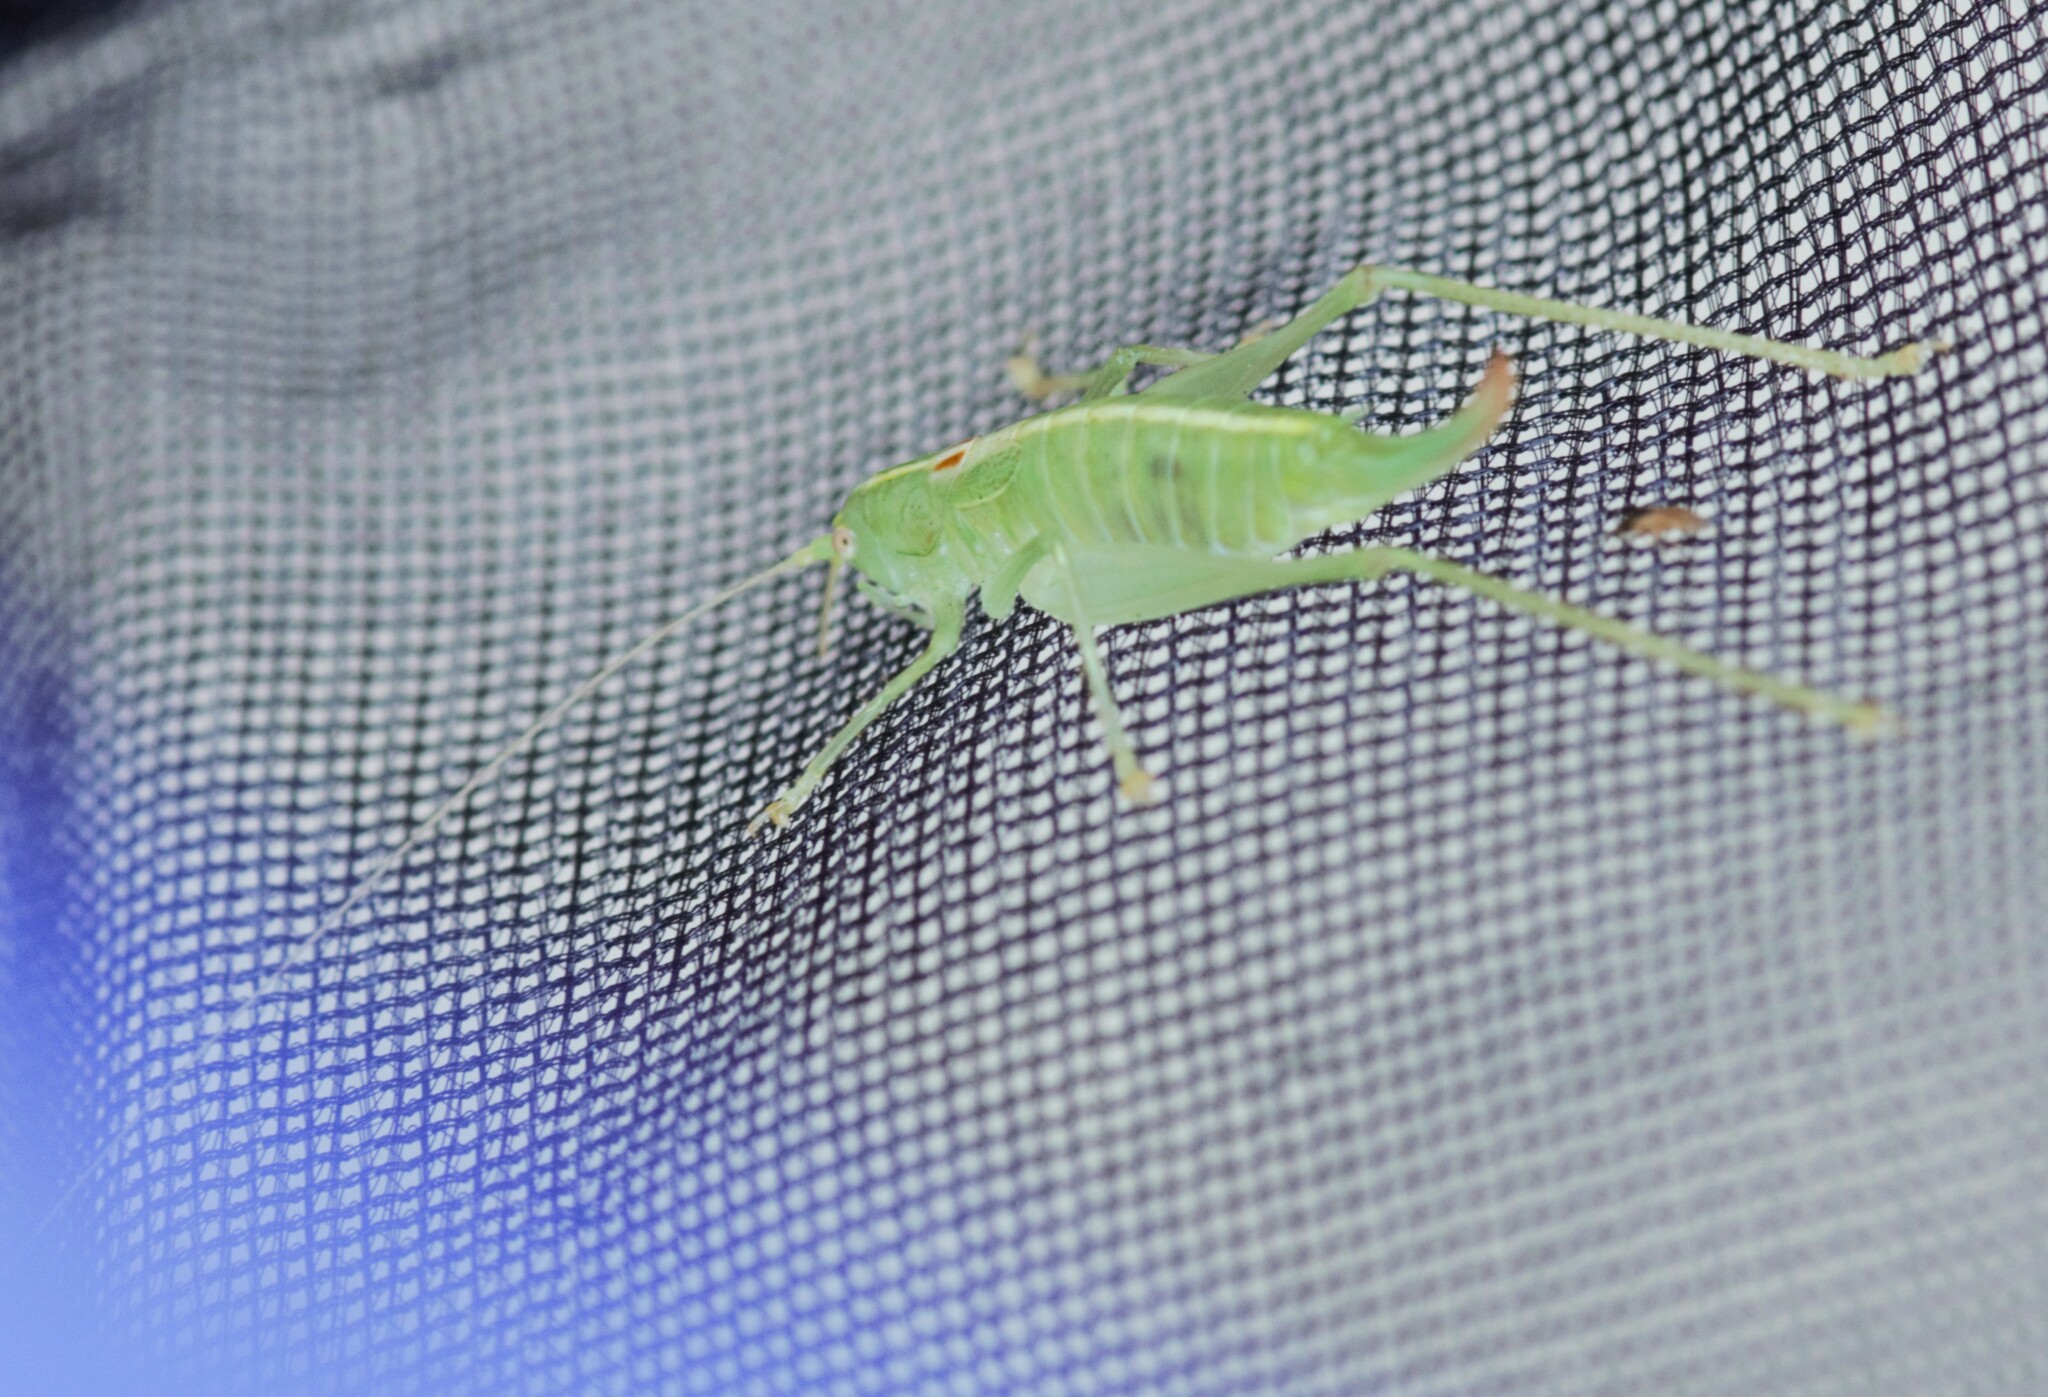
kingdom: Animalia
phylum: Arthropoda
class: Insecta
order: Orthoptera
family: Tettigoniidae
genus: Meconema
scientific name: Meconema meridionale
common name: Southern oak bush-cricket
